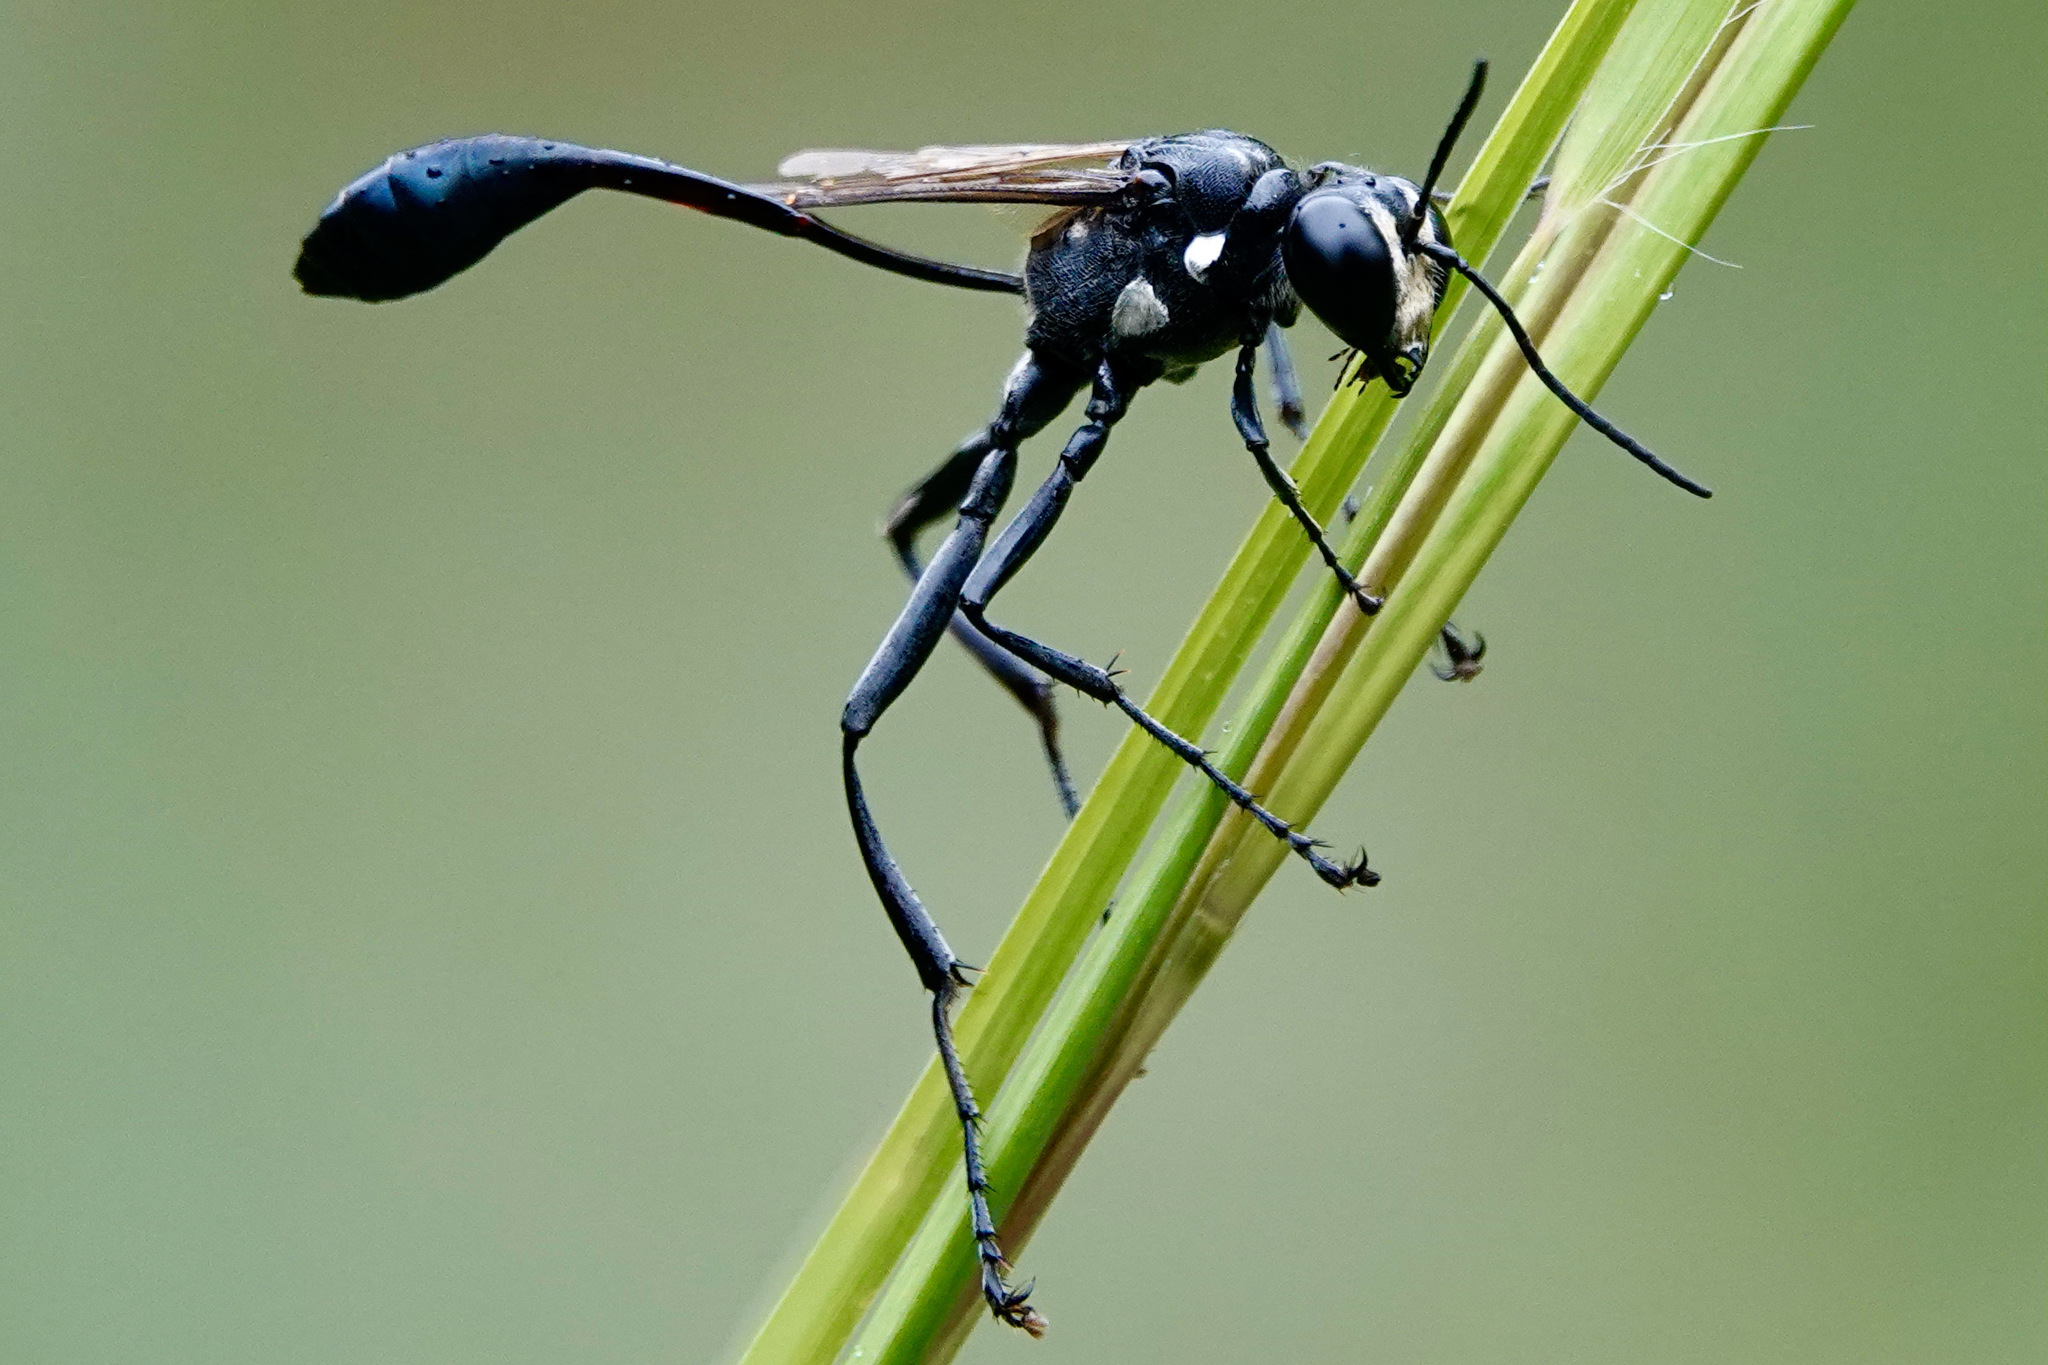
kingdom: Animalia
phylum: Arthropoda
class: Insecta
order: Hymenoptera
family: Sphecidae
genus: Eremnophila
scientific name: Eremnophila aureonotata
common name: Gold-marked thread-waisted wasp
